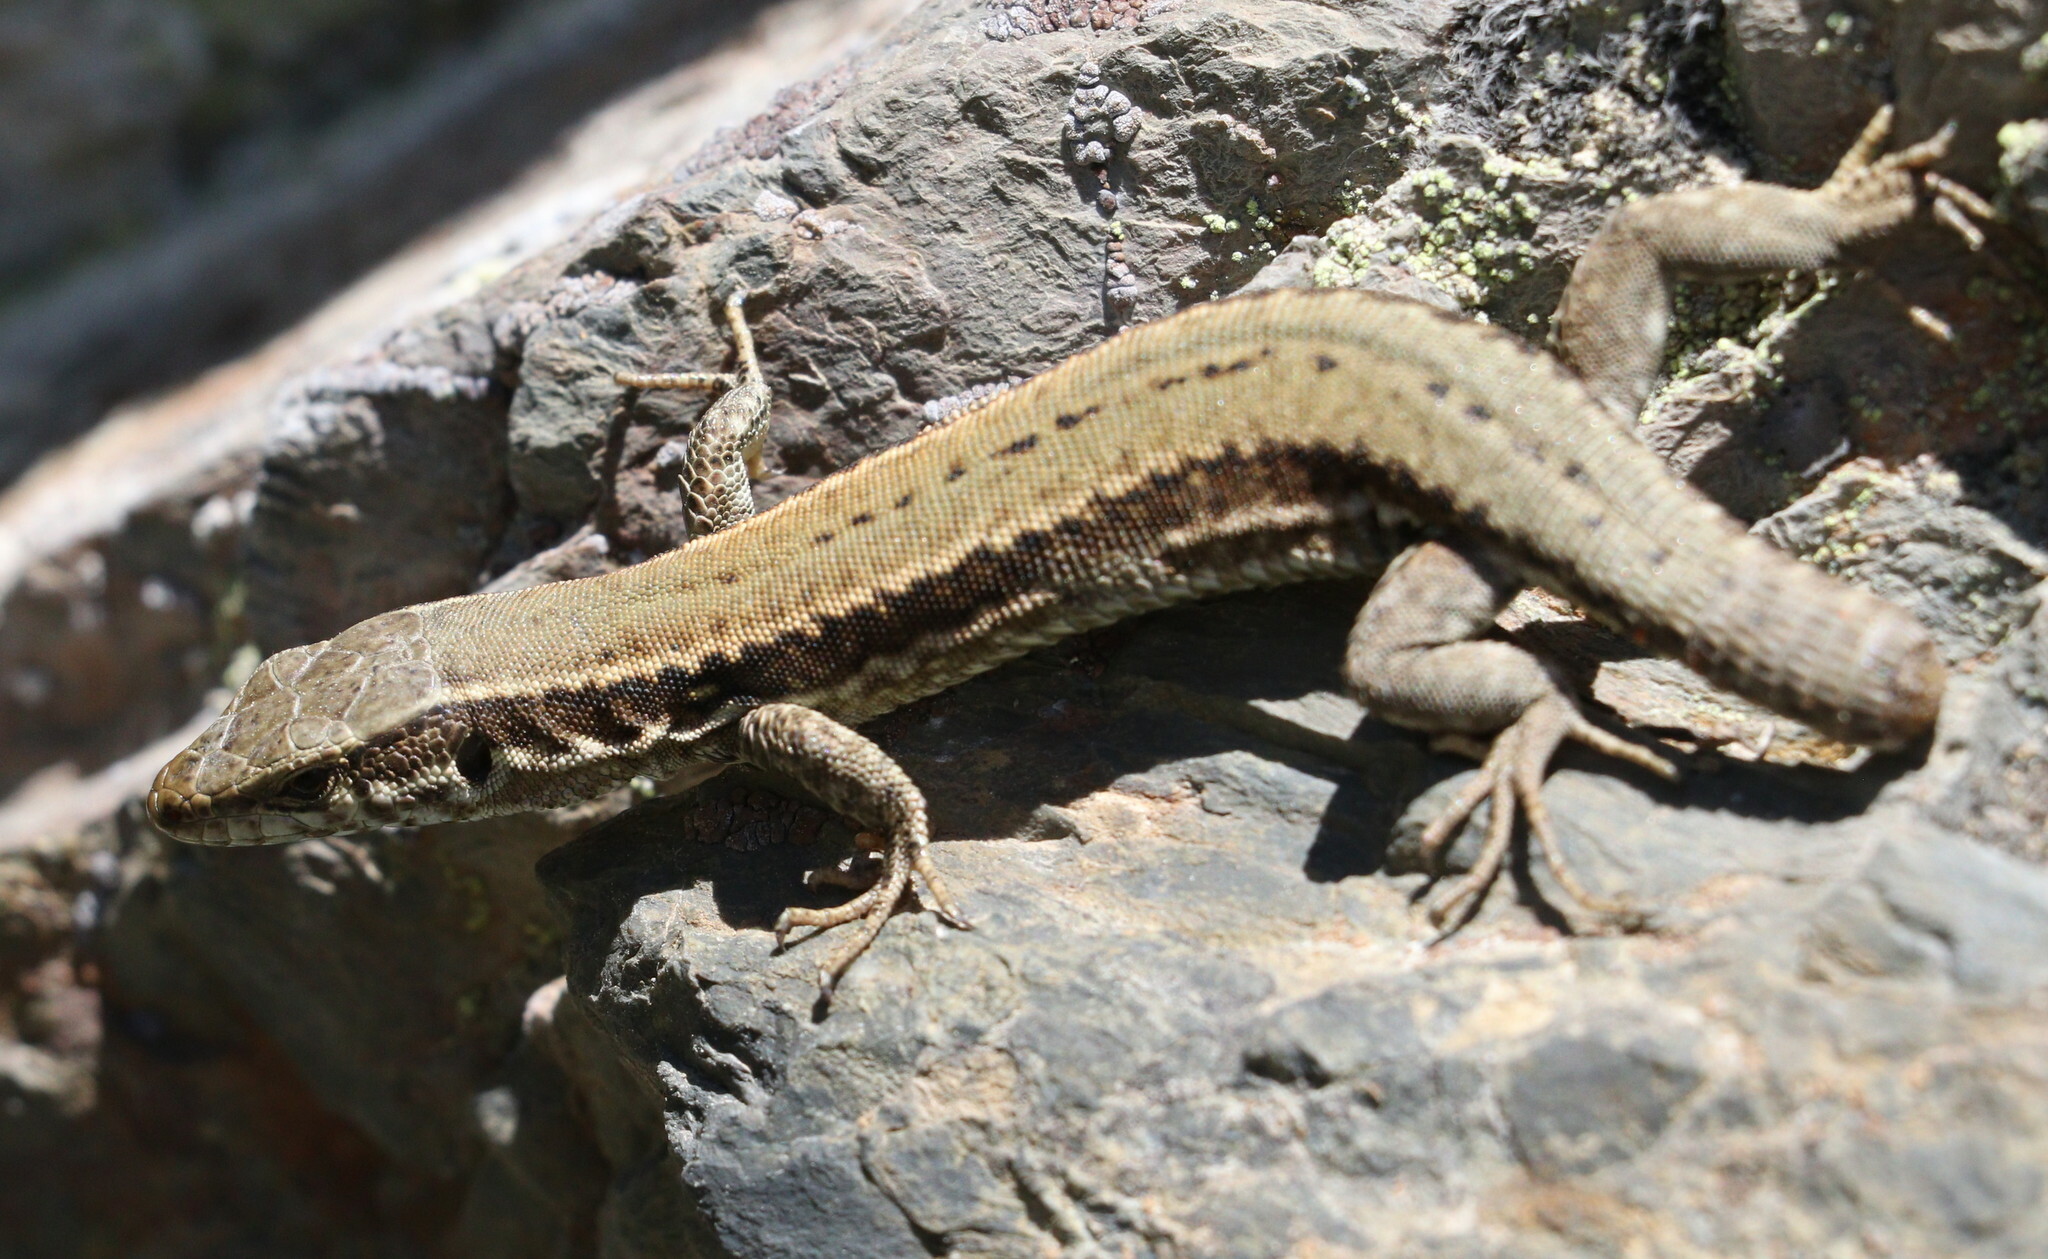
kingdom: Animalia
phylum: Chordata
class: Squamata
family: Lacertidae
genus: Podarcis
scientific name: Podarcis muralis
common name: Common wall lizard
